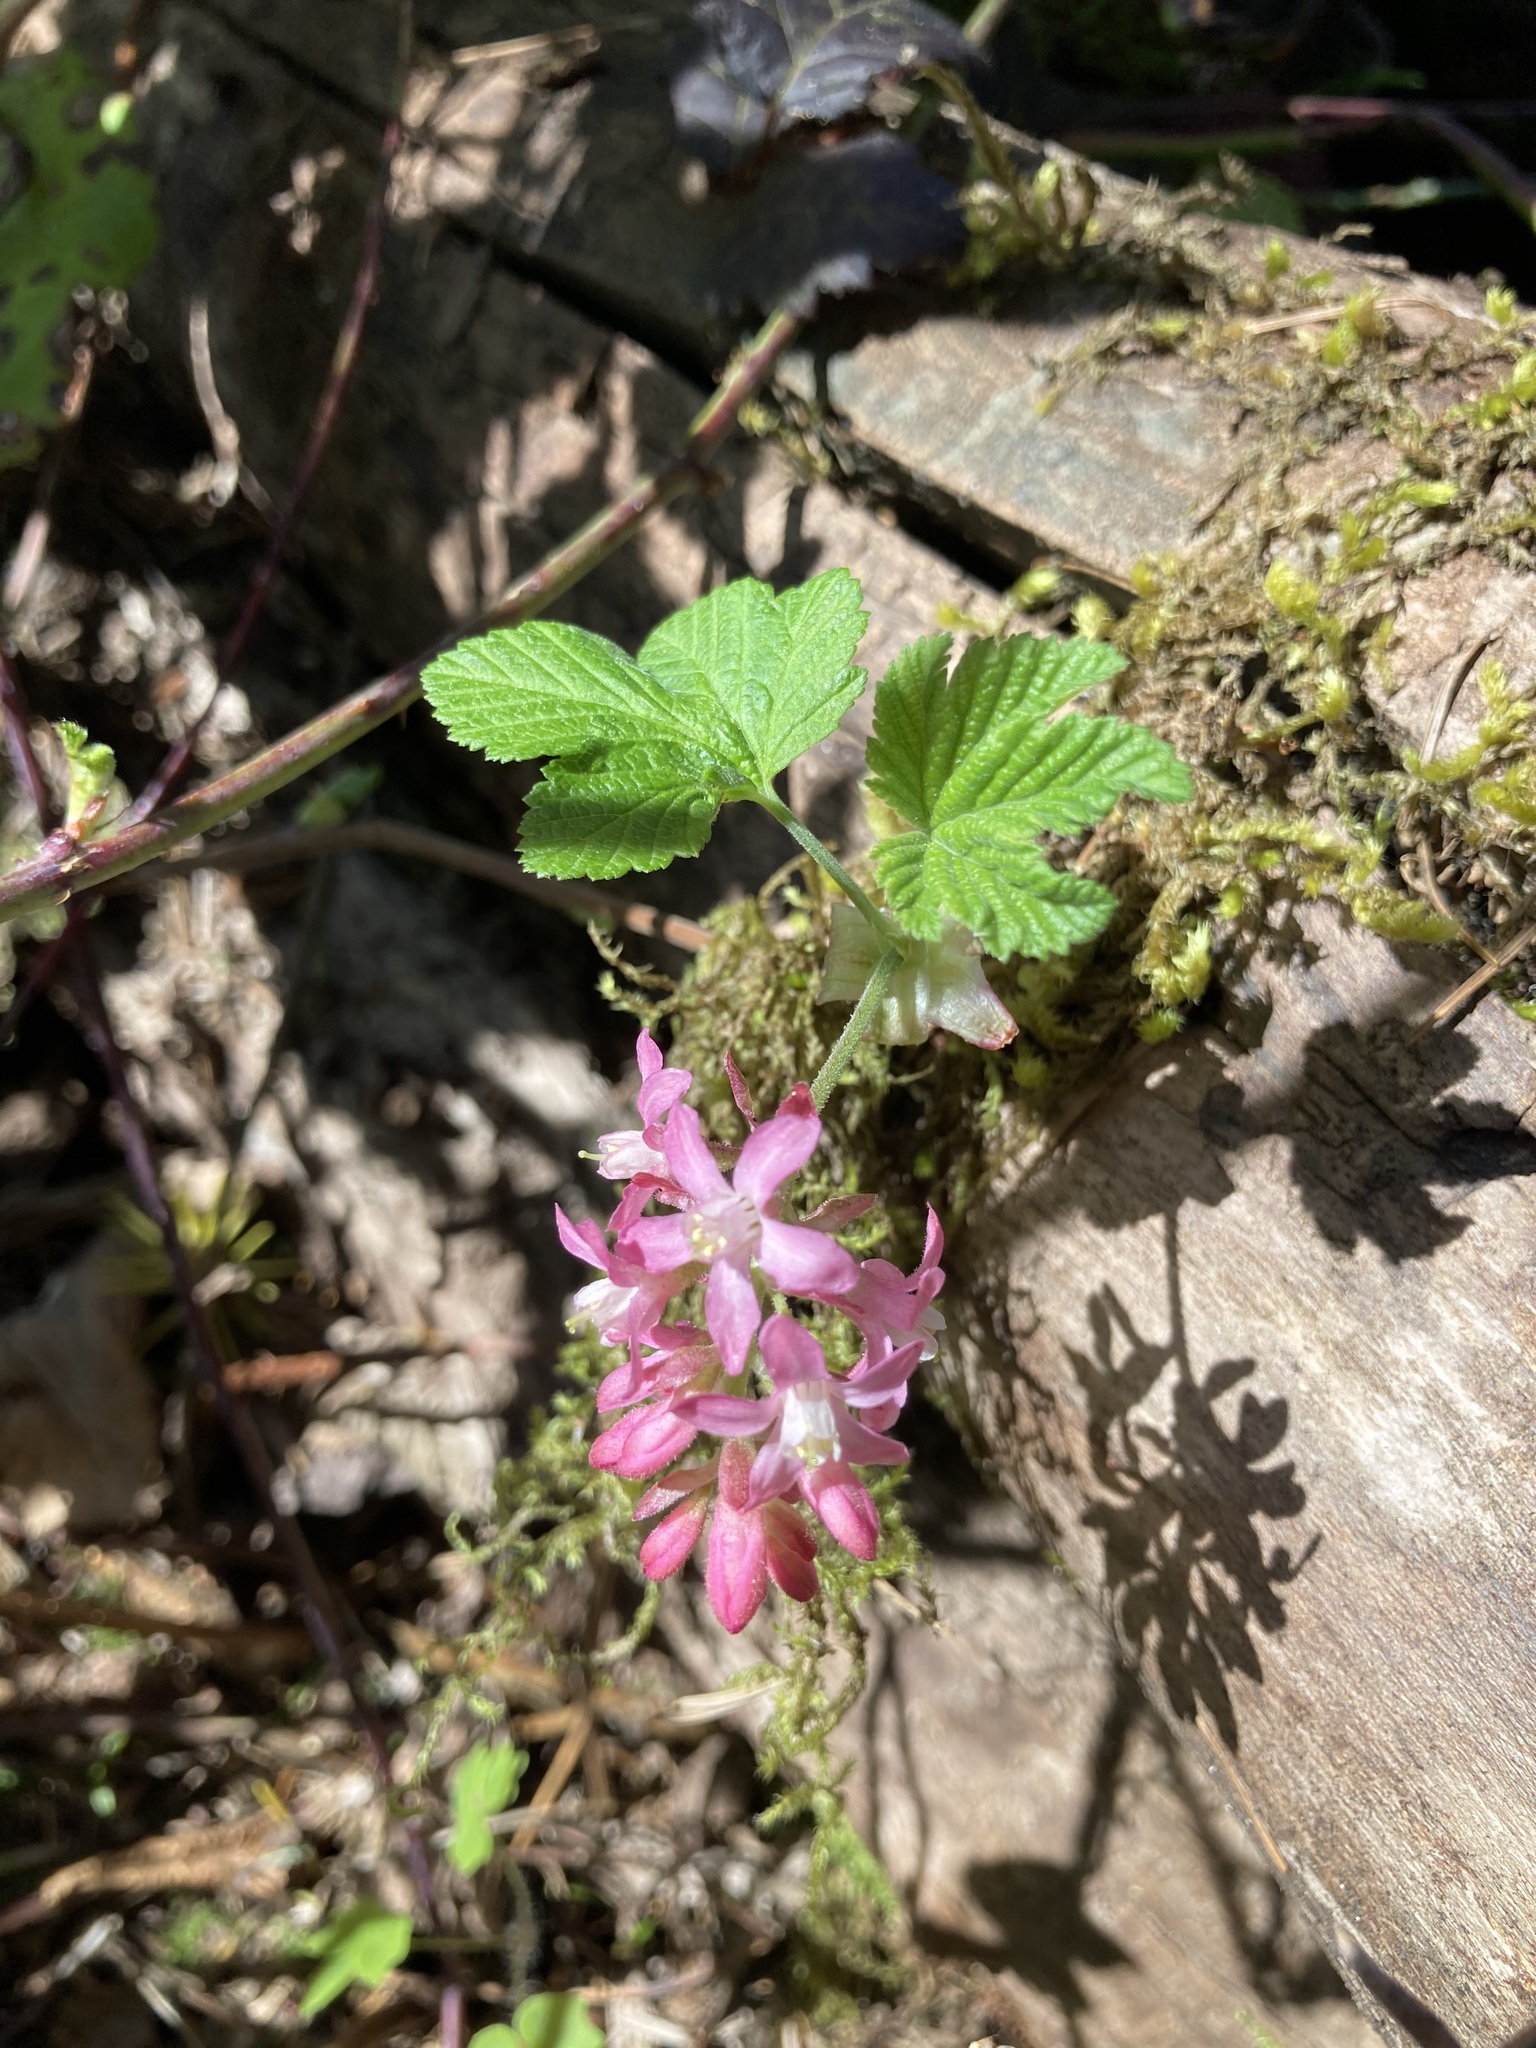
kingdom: Plantae
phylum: Tracheophyta
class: Magnoliopsida
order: Saxifragales
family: Grossulariaceae
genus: Ribes
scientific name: Ribes sanguineum
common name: Flowering currant
